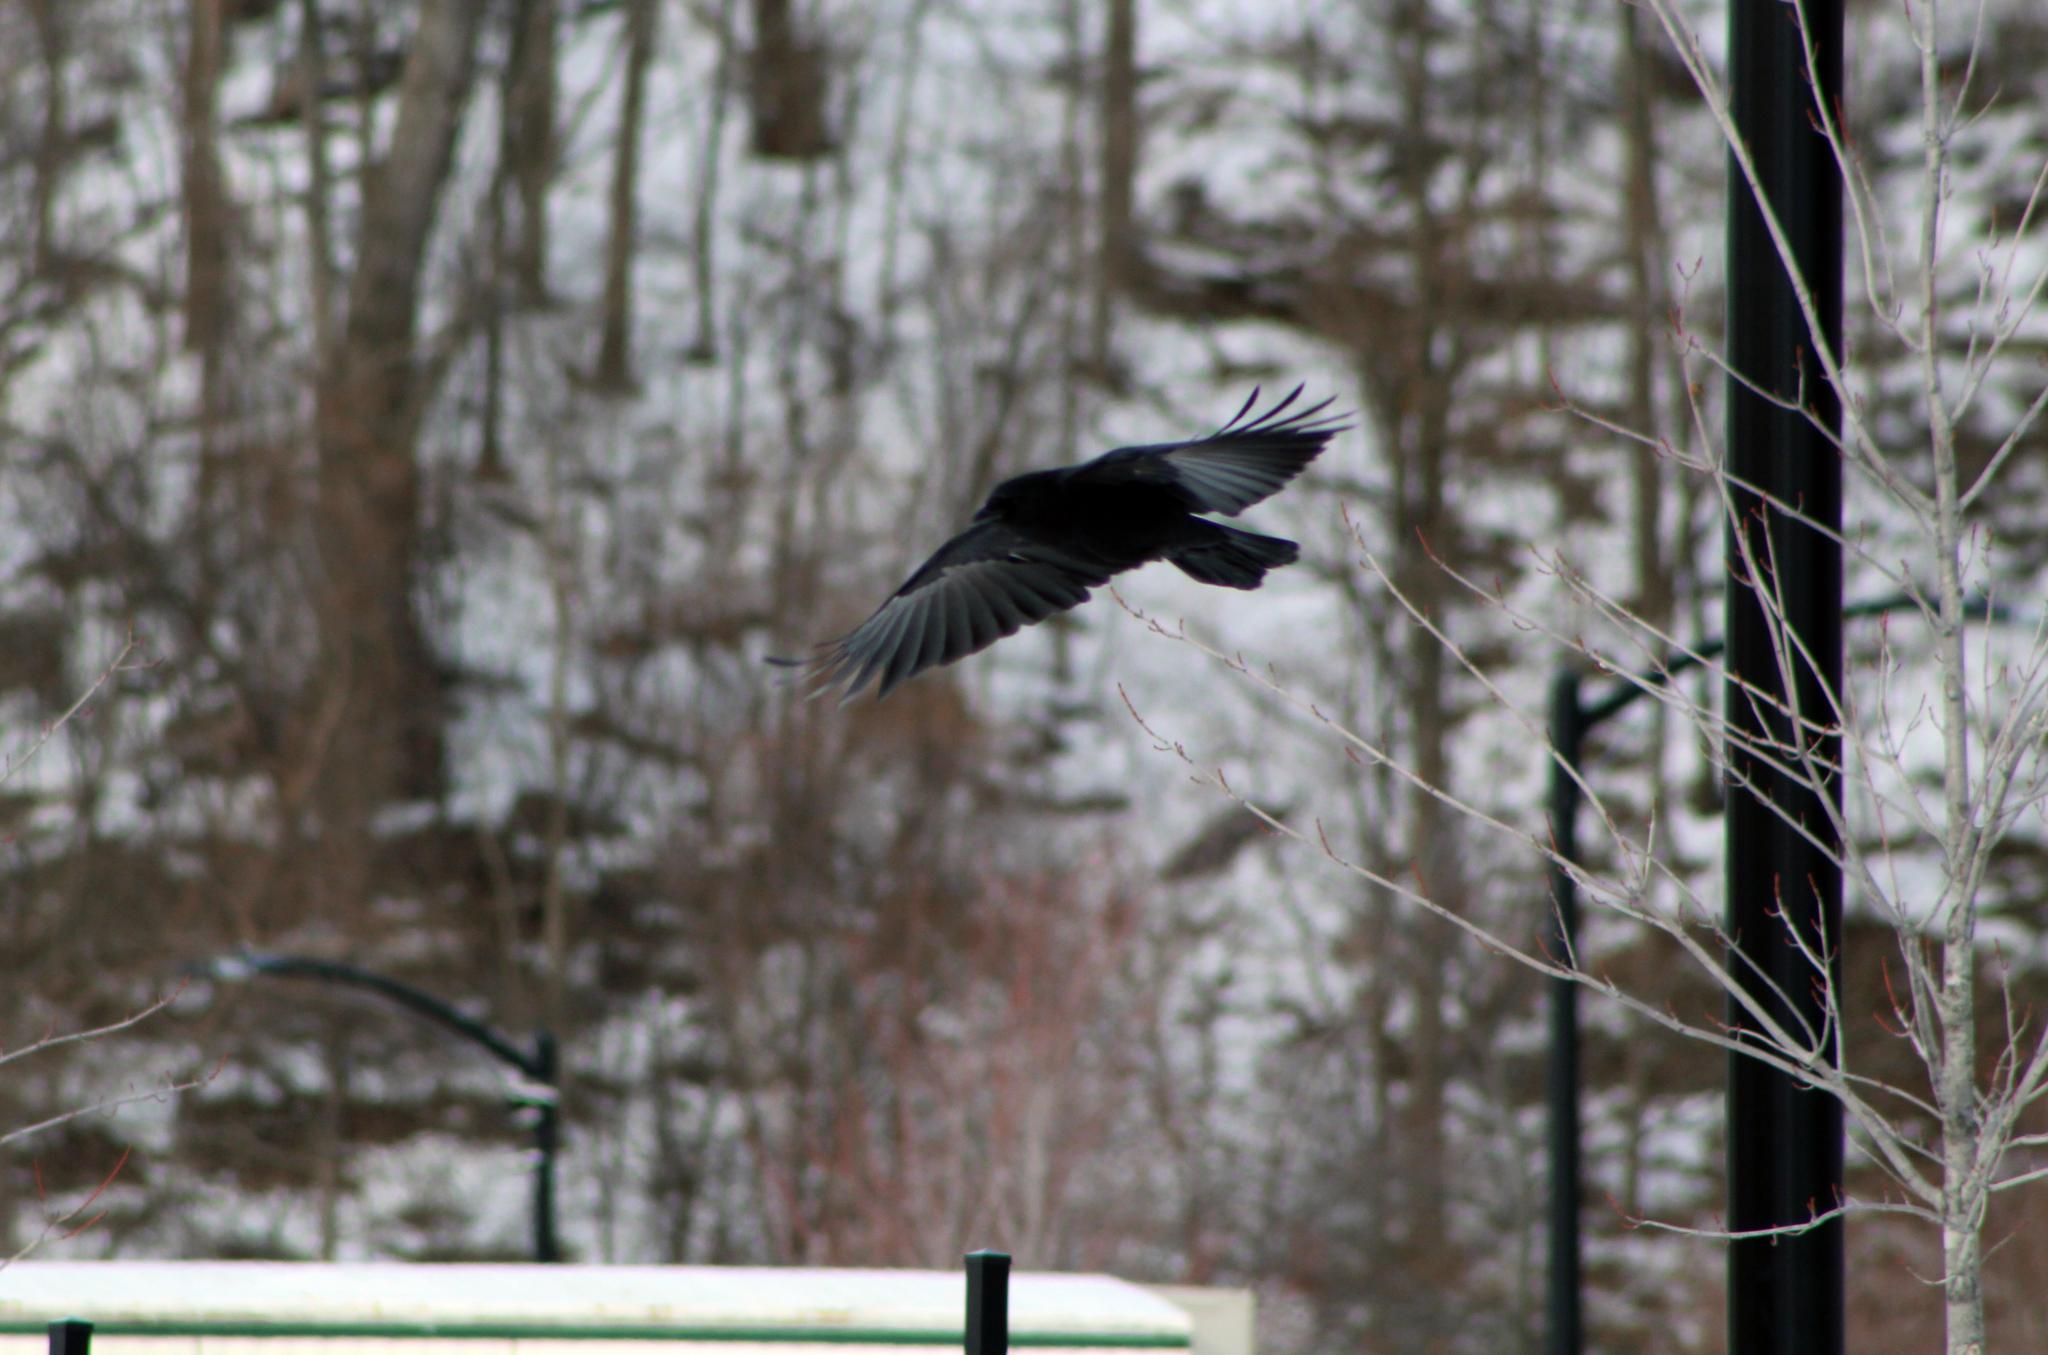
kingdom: Animalia
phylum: Chordata
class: Aves
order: Passeriformes
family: Corvidae
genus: Corvus
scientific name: Corvus brachyrhynchos
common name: American crow
